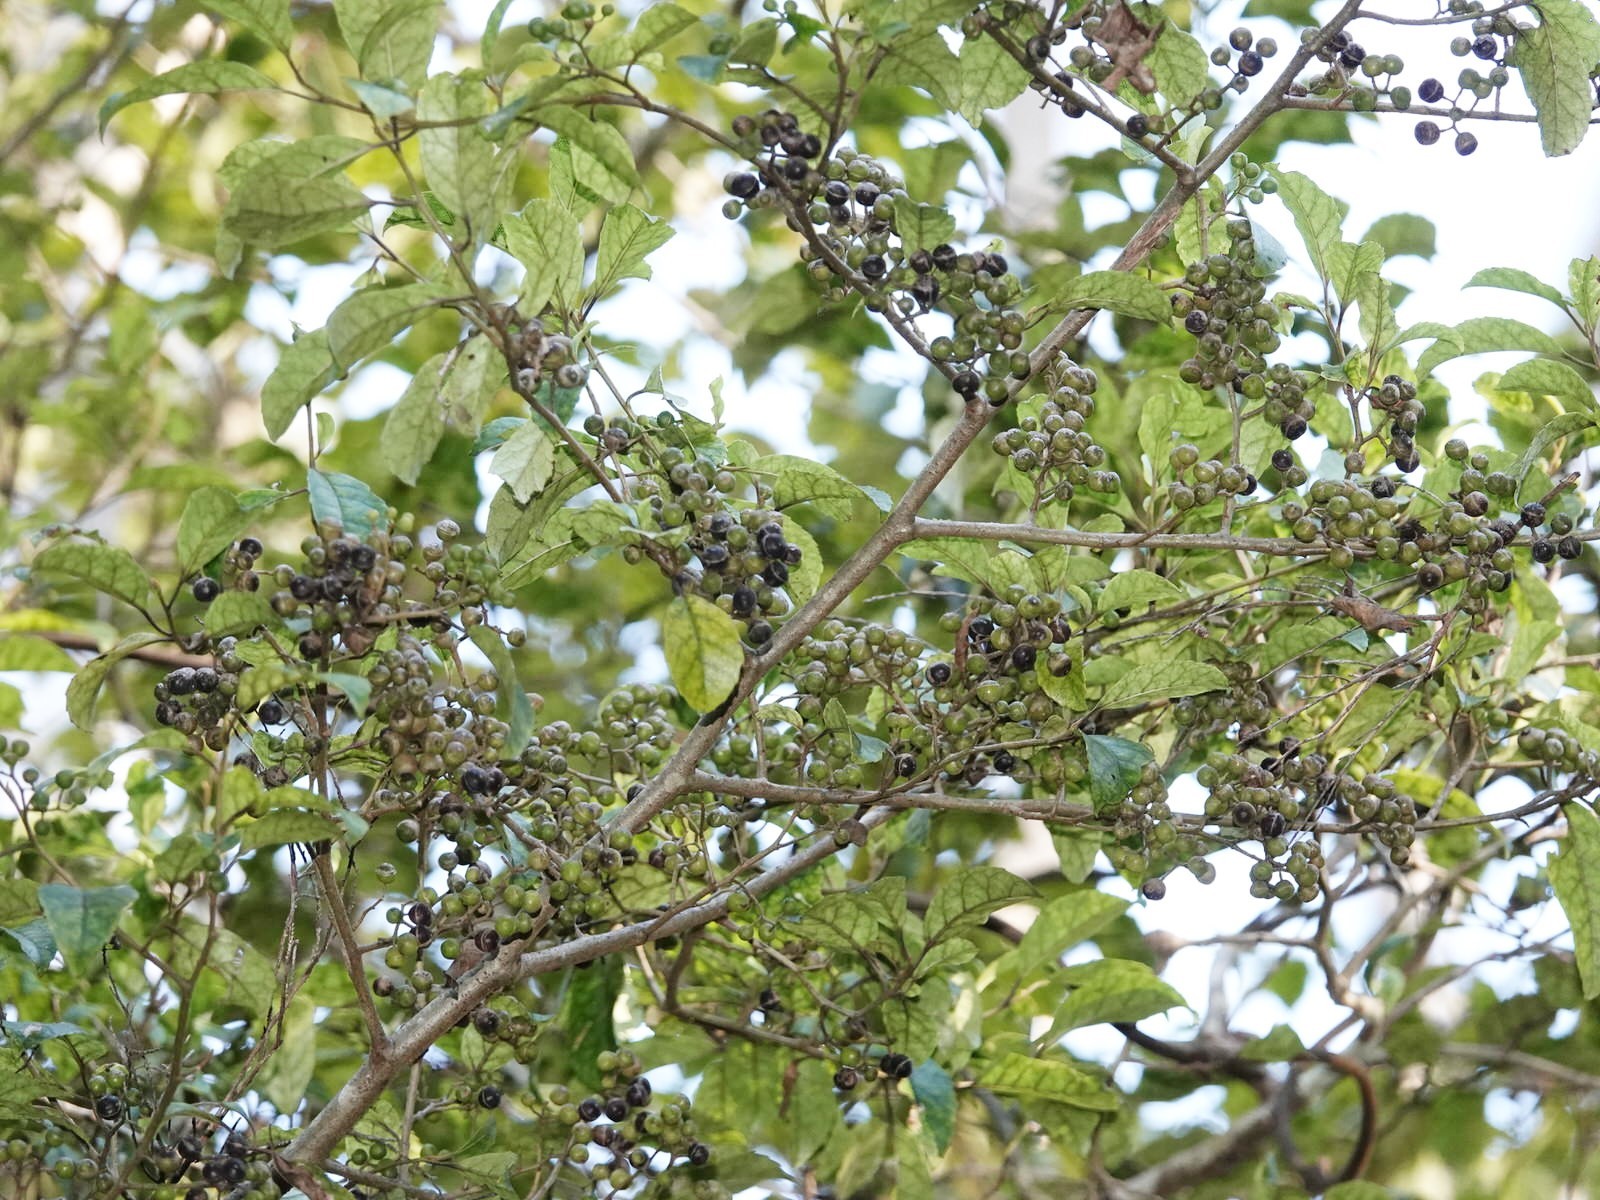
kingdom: Plantae
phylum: Tracheophyta
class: Magnoliopsida
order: Asterales
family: Rousseaceae
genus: Carpodetus
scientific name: Carpodetus serratus
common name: White mapau
